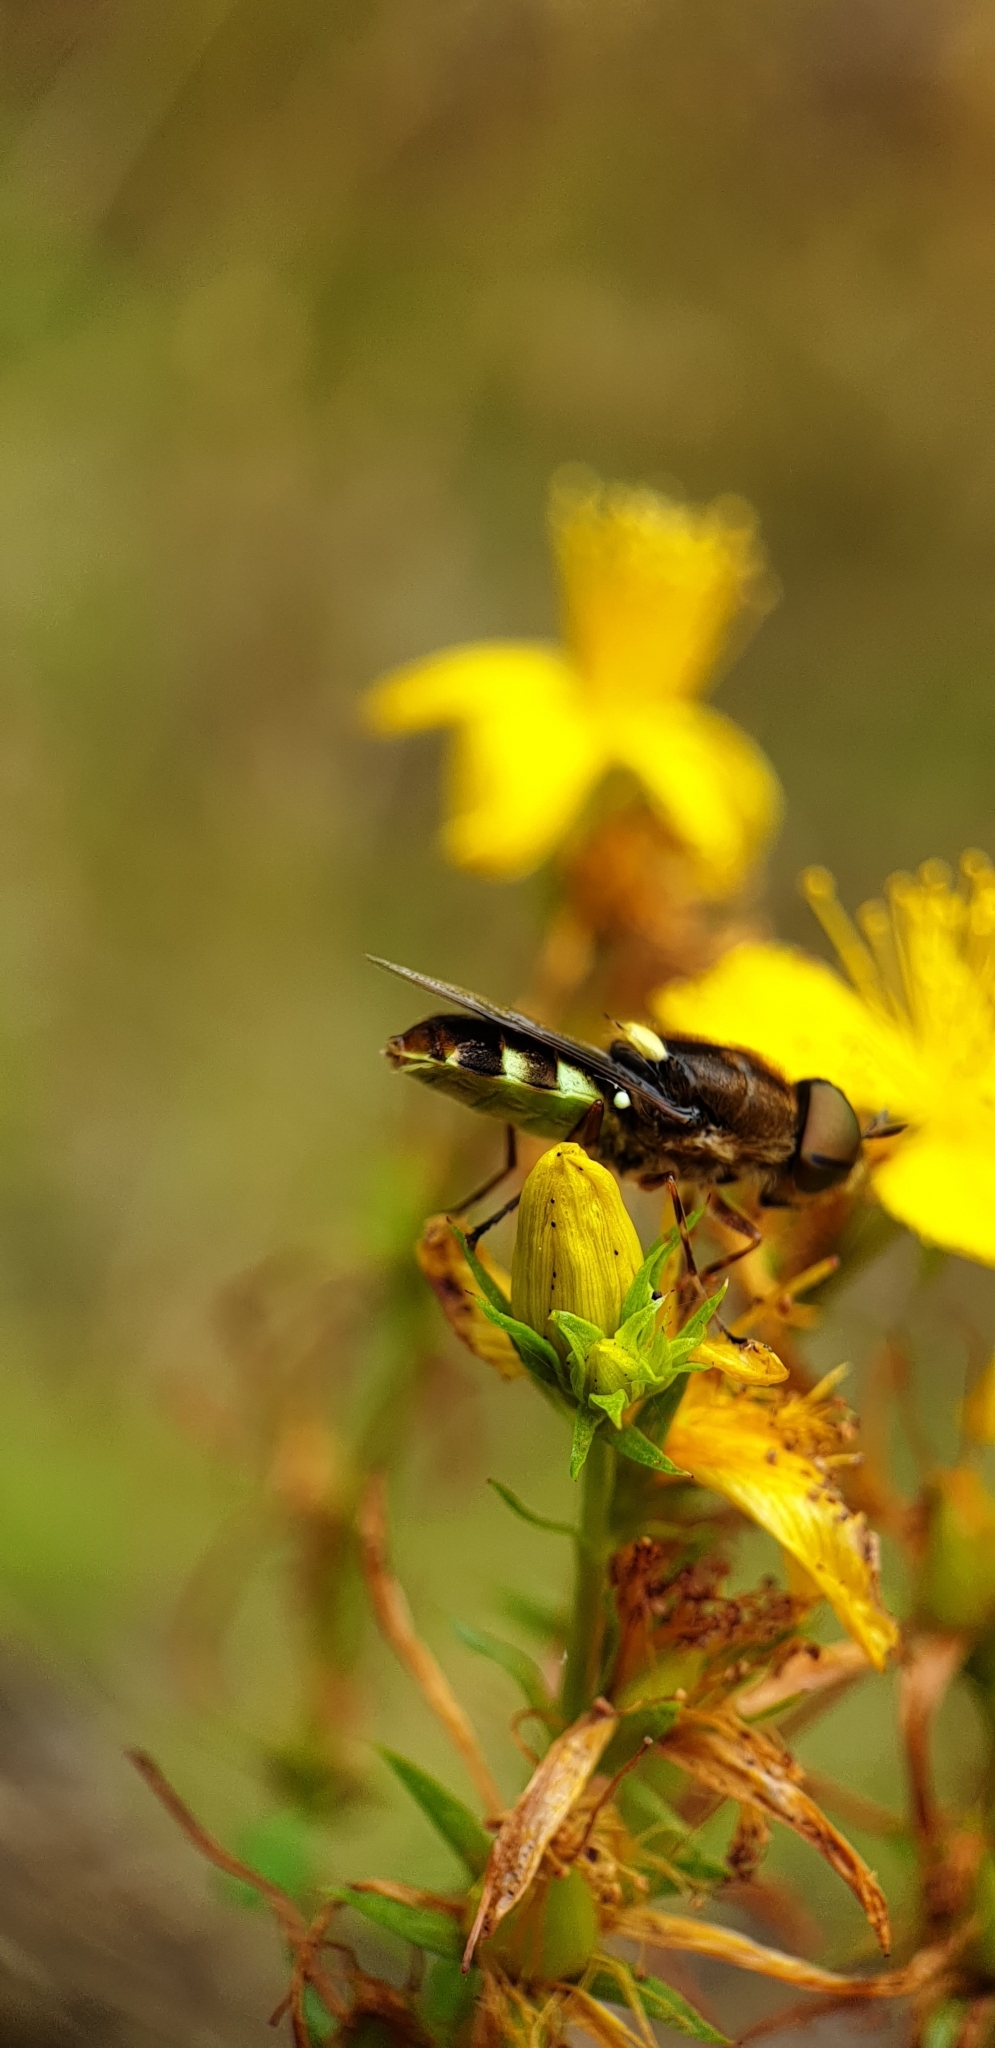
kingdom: Animalia
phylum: Arthropoda
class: Insecta
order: Diptera
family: Stratiomyidae
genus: Odontomyia
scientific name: Odontomyia hunteri
